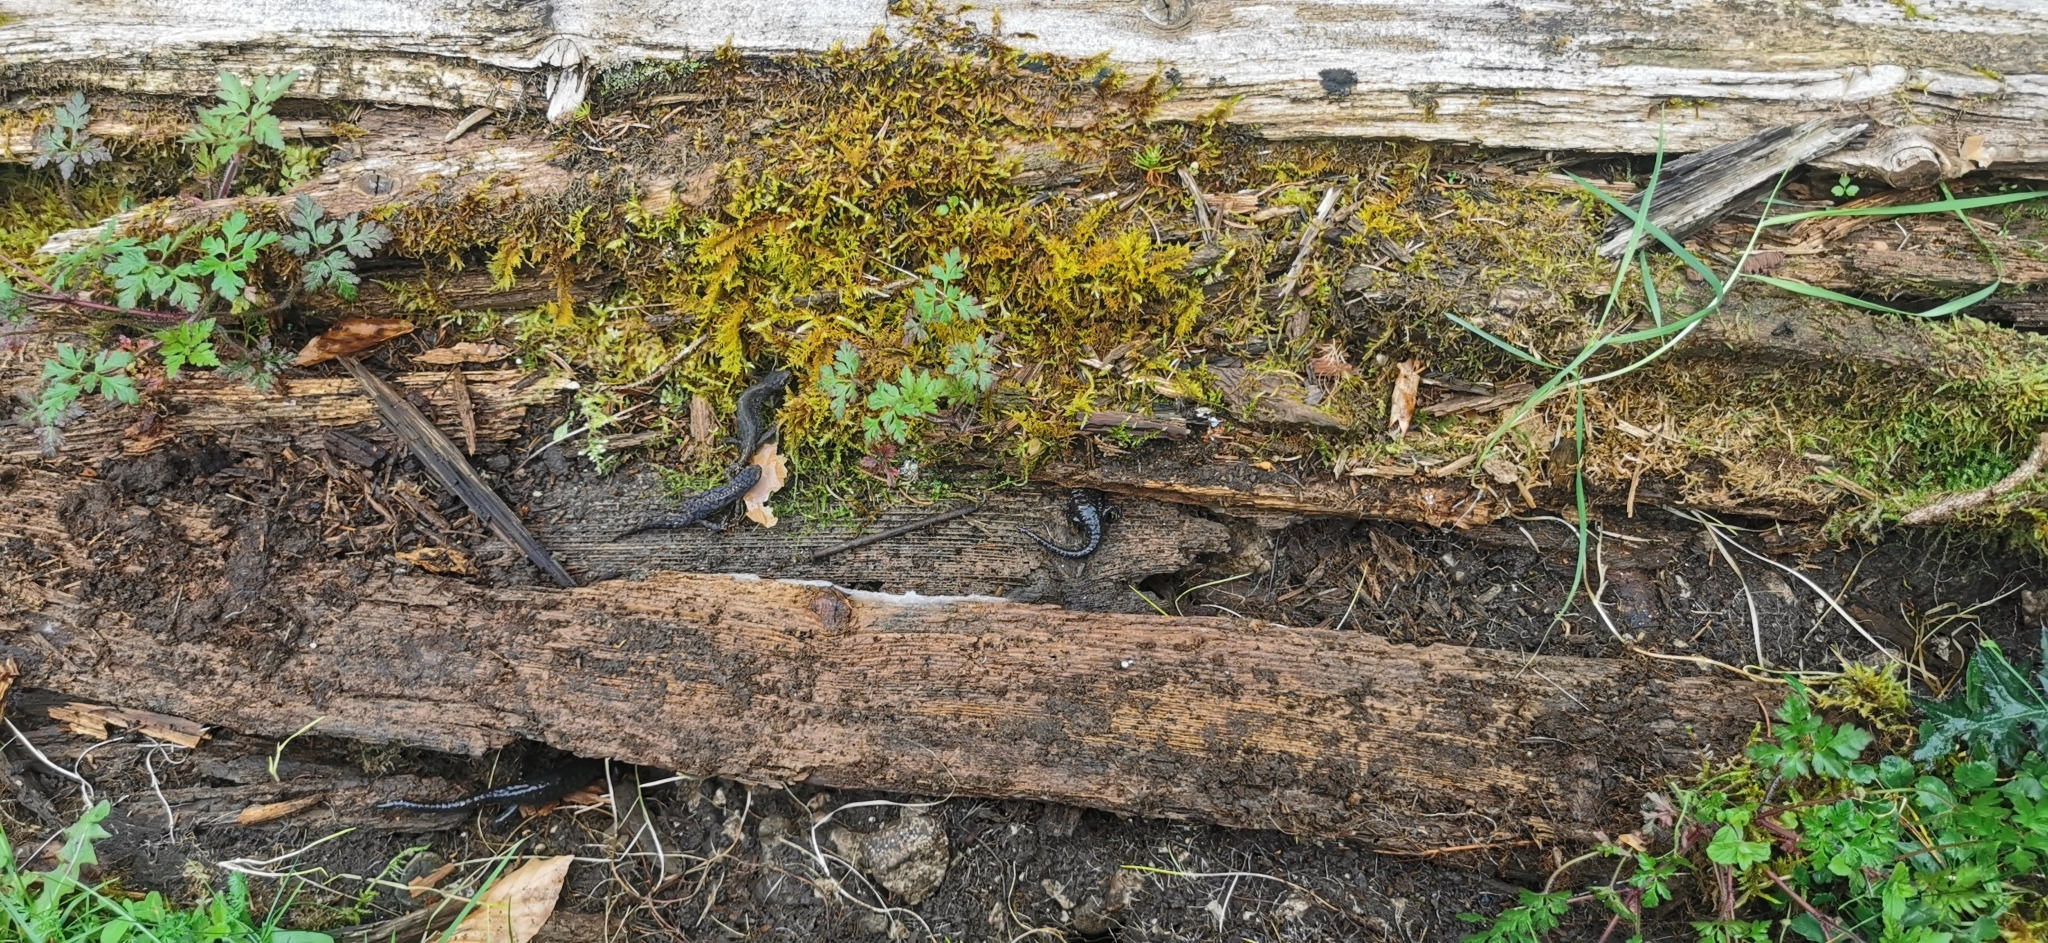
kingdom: Animalia
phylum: Chordata
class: Amphibia
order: Caudata
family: Salamandridae
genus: Ichthyosaura
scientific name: Ichthyosaura alpestris
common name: Alpine newt
